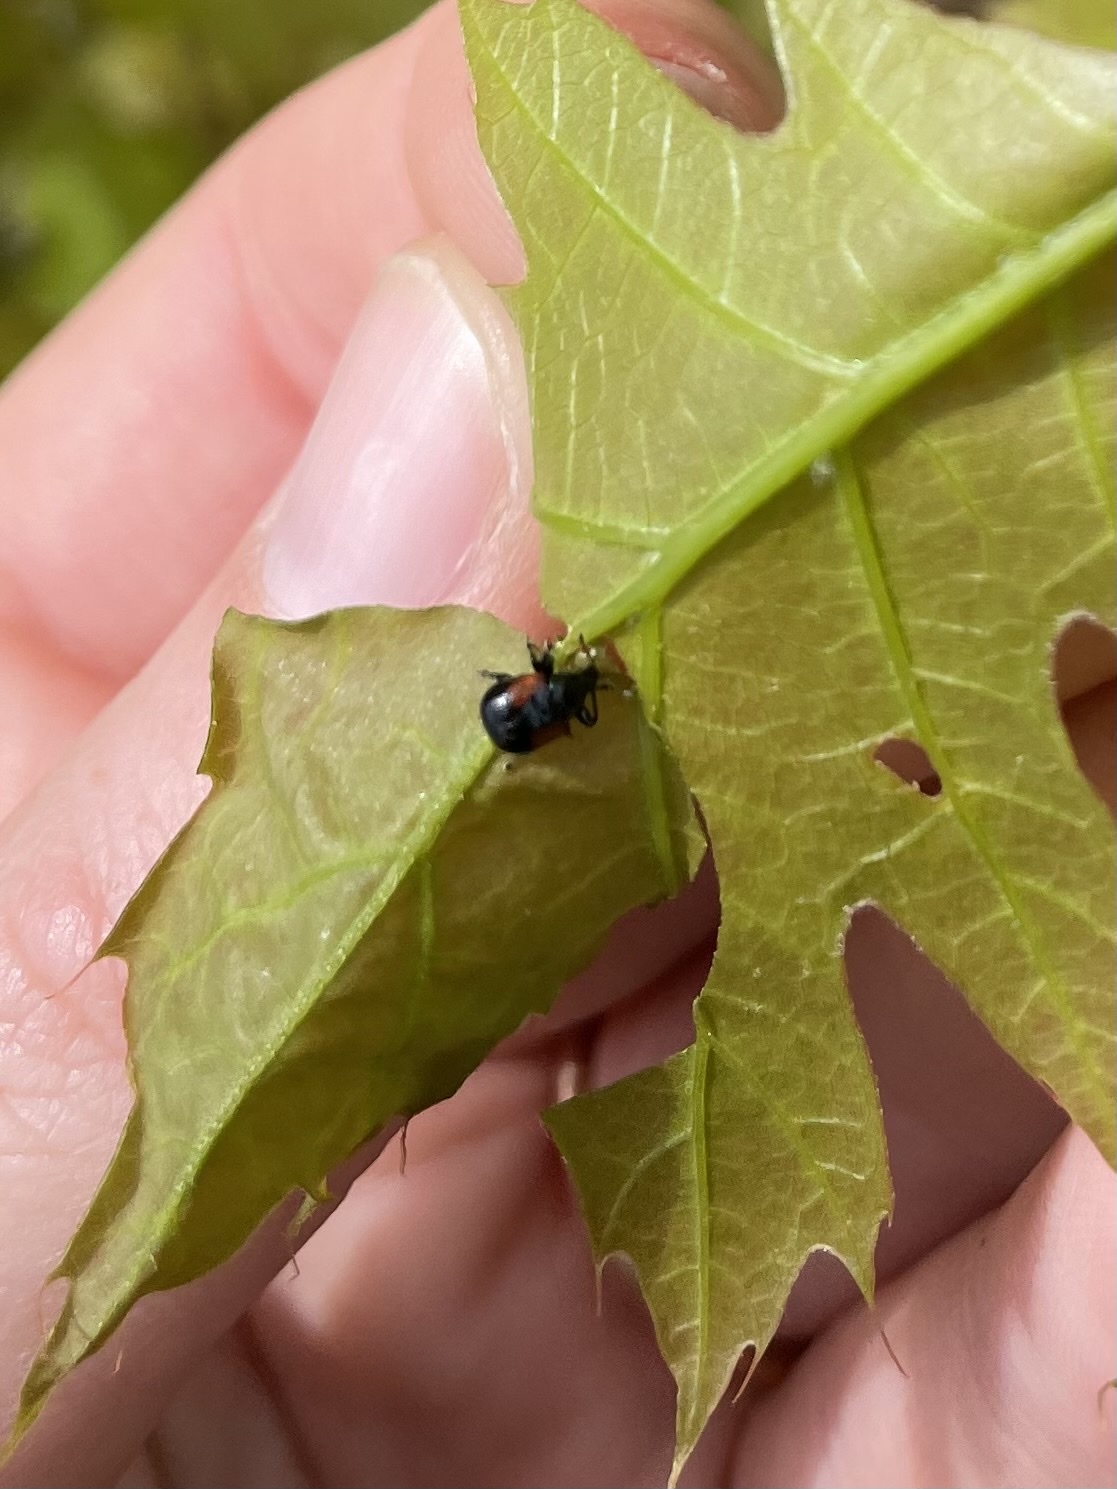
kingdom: Animalia
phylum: Arthropoda
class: Insecta
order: Coleoptera
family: Attelabidae
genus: Attelabus
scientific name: Attelabus bipustulatus
